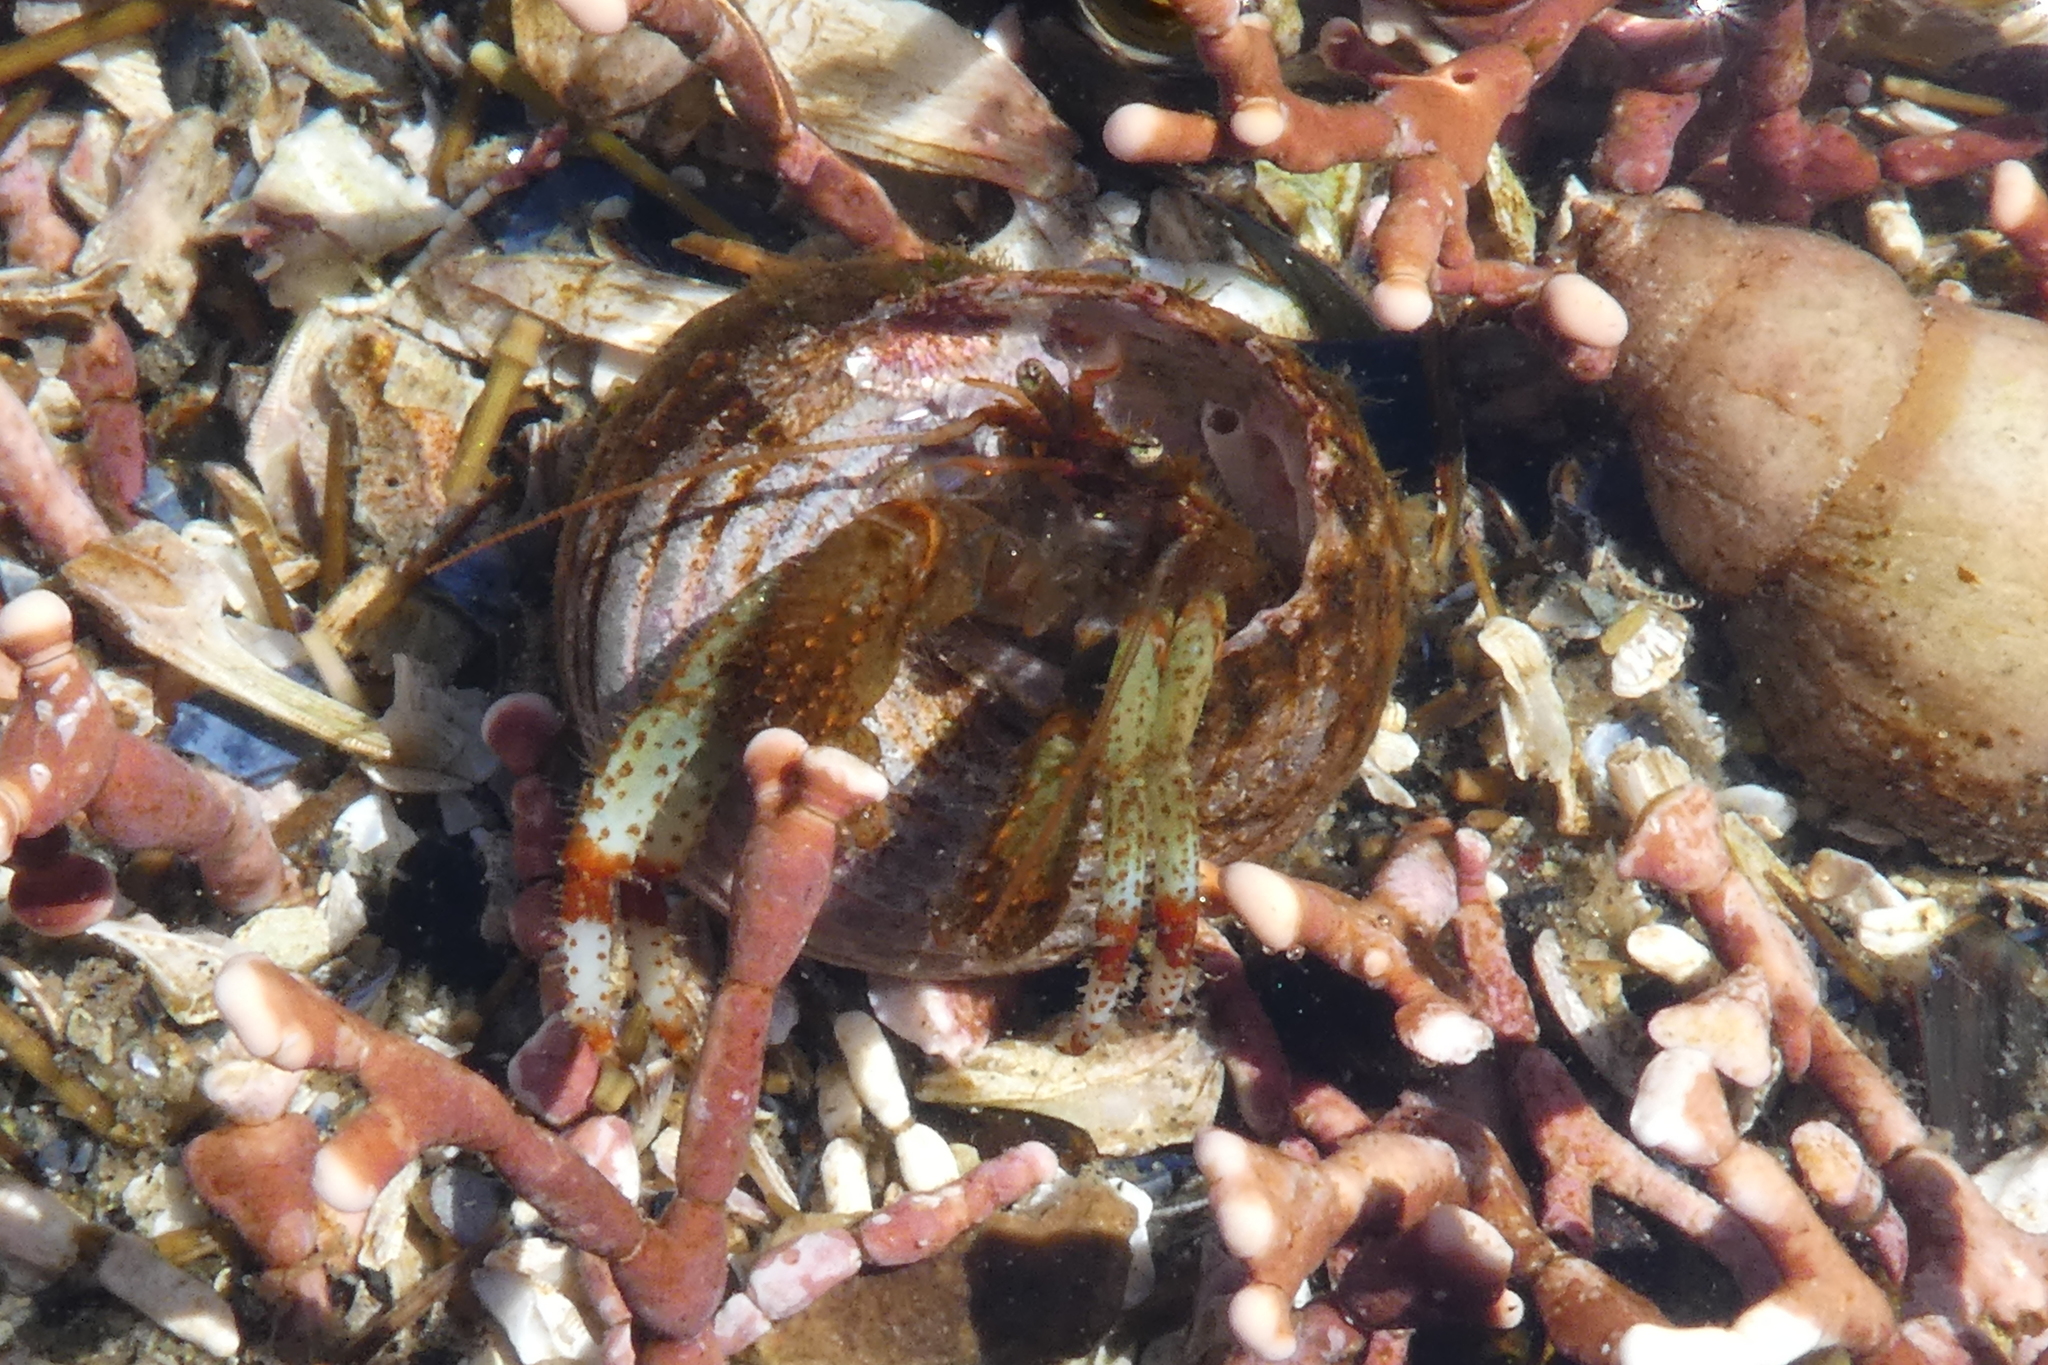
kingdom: Animalia
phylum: Arthropoda
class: Malacostraca
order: Decapoda
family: Paguridae
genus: Pagurus
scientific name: Pagurus beringanus
